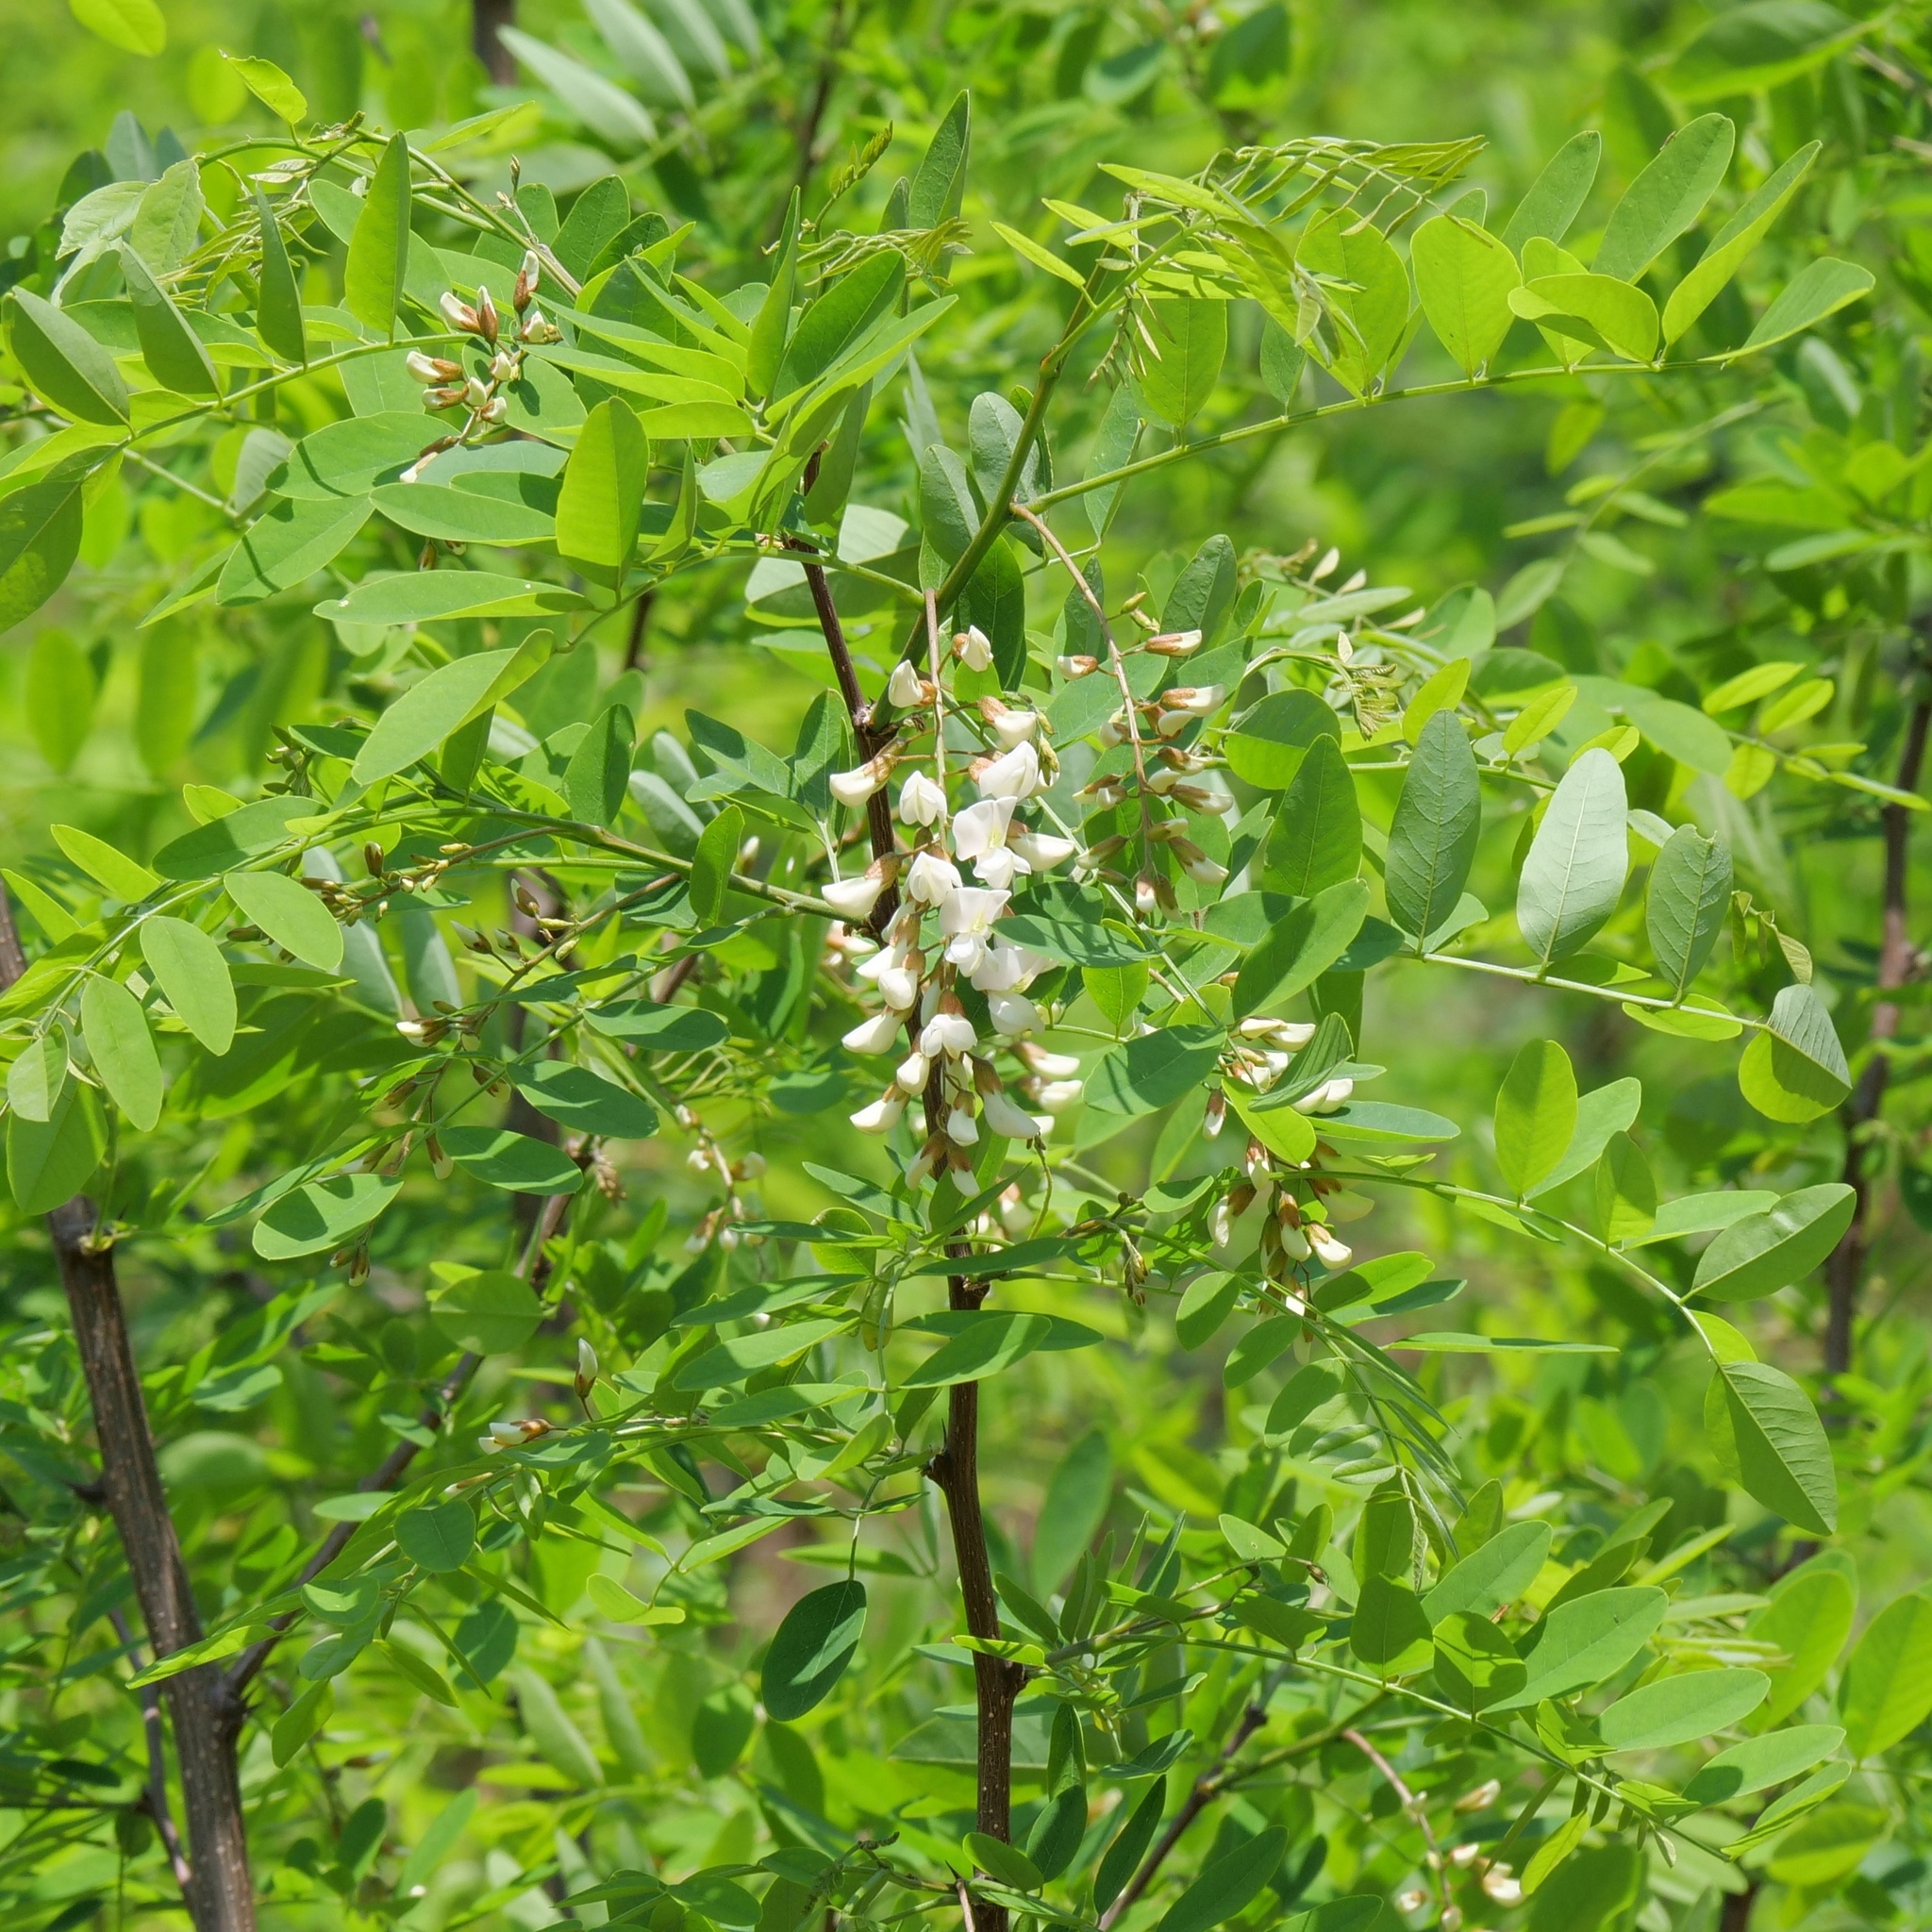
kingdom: Plantae
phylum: Tracheophyta
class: Magnoliopsida
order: Fabales
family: Fabaceae
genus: Robinia
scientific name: Robinia pseudoacacia
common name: Black locust
